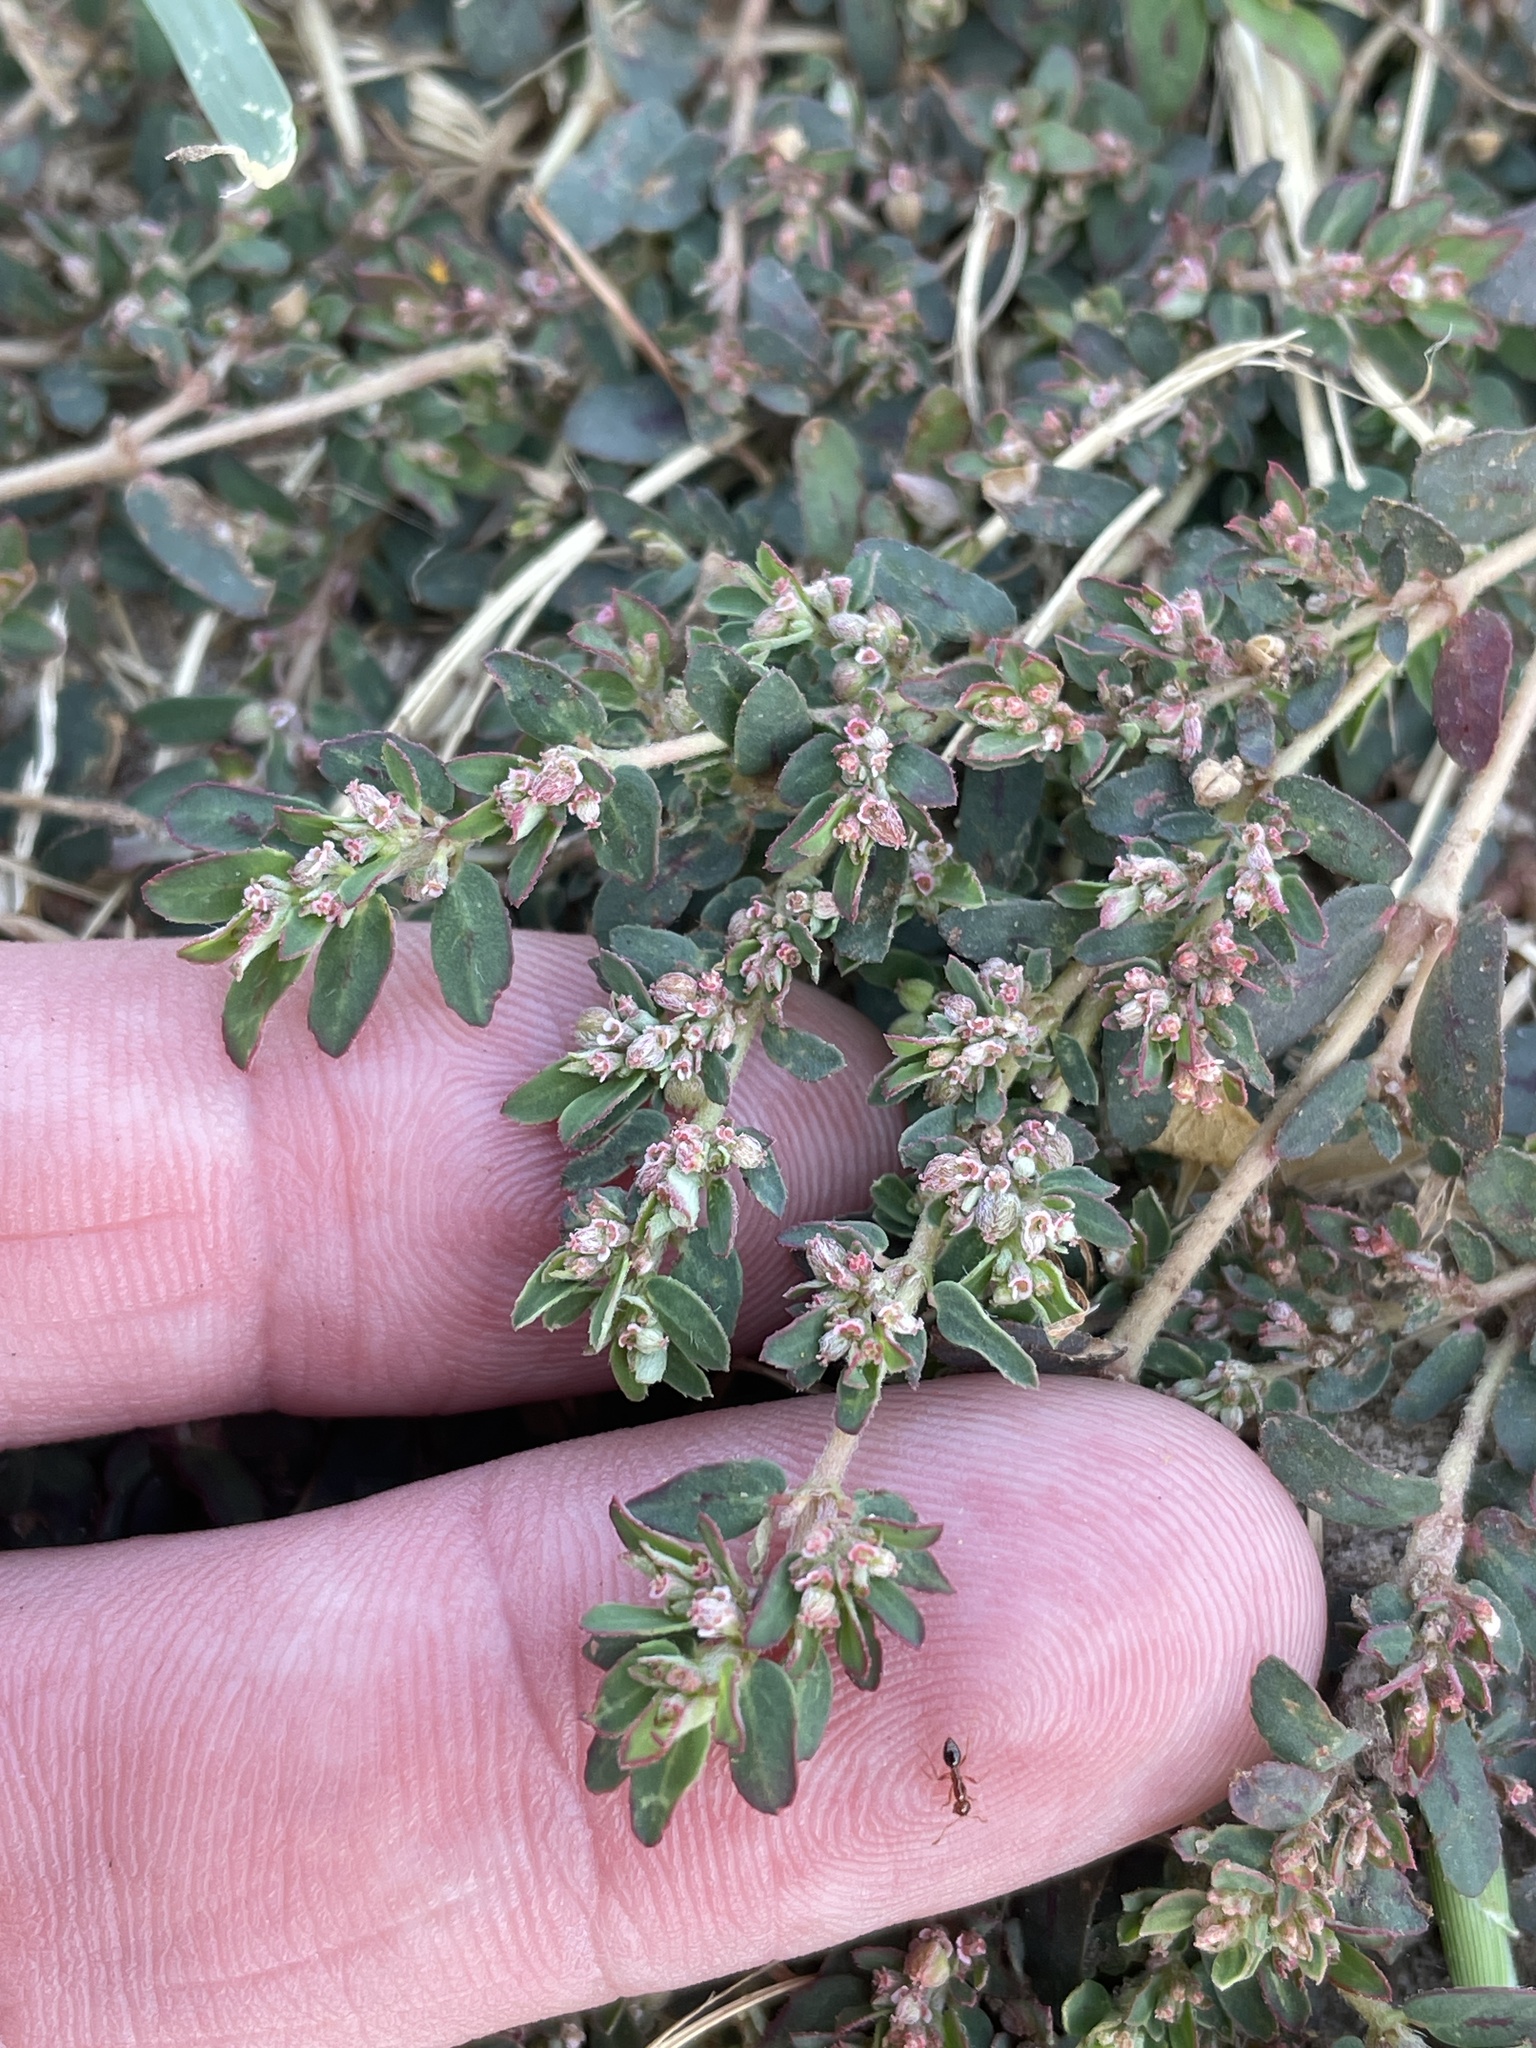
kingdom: Plantae
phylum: Tracheophyta
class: Magnoliopsida
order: Malpighiales
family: Euphorbiaceae
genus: Euphorbia
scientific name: Euphorbia maculata
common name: Spotted spurge
